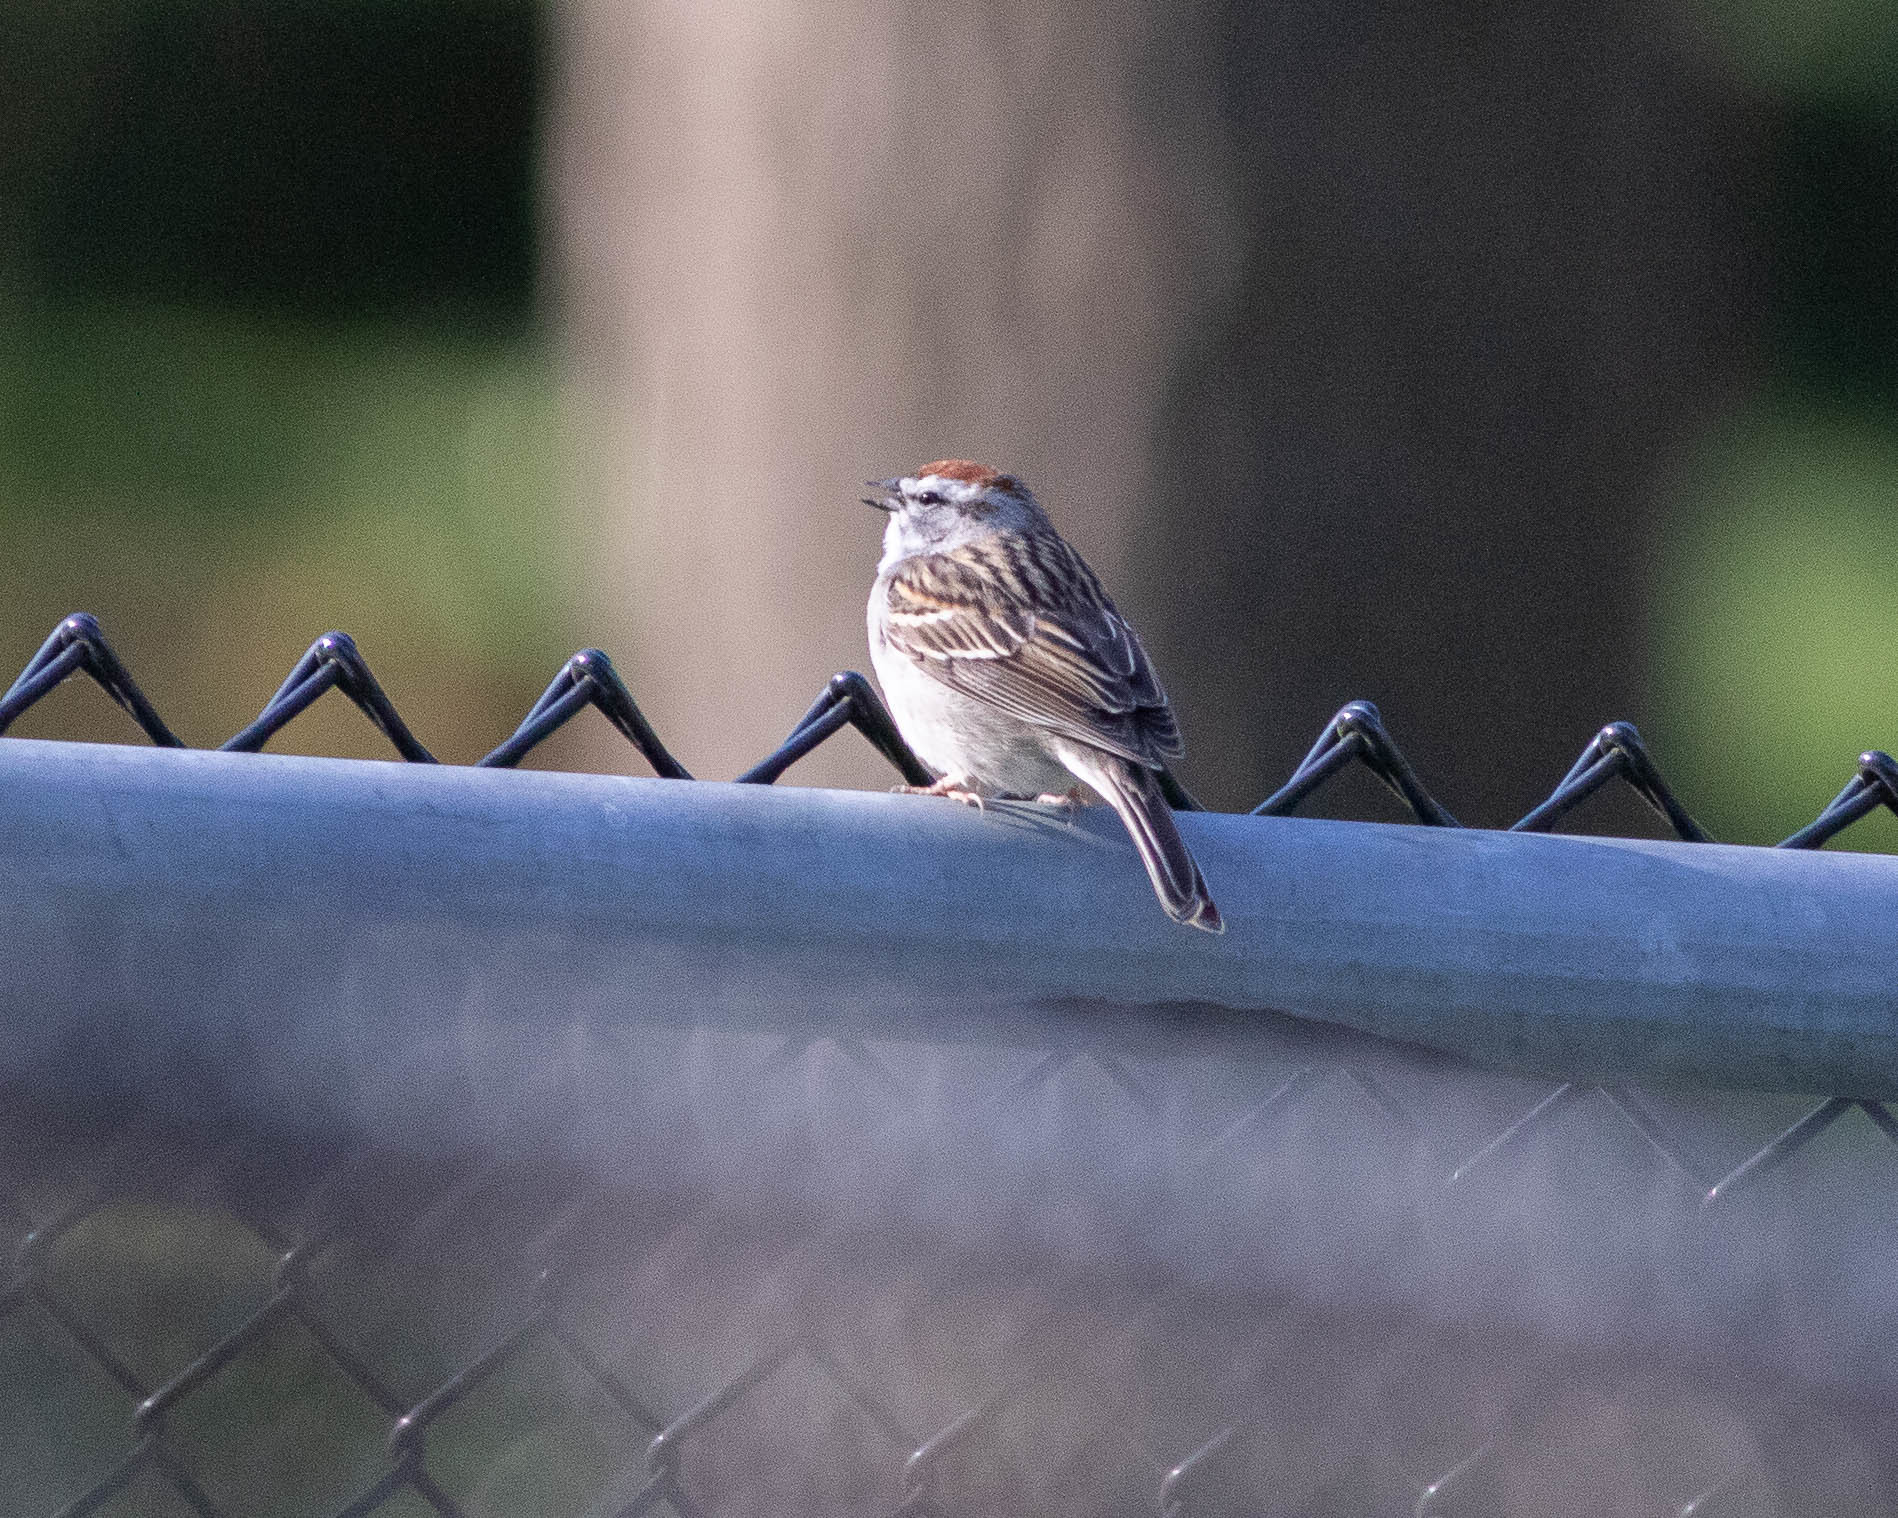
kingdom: Animalia
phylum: Chordata
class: Aves
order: Passeriformes
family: Passerellidae
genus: Spizella
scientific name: Spizella passerina
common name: Chipping sparrow
